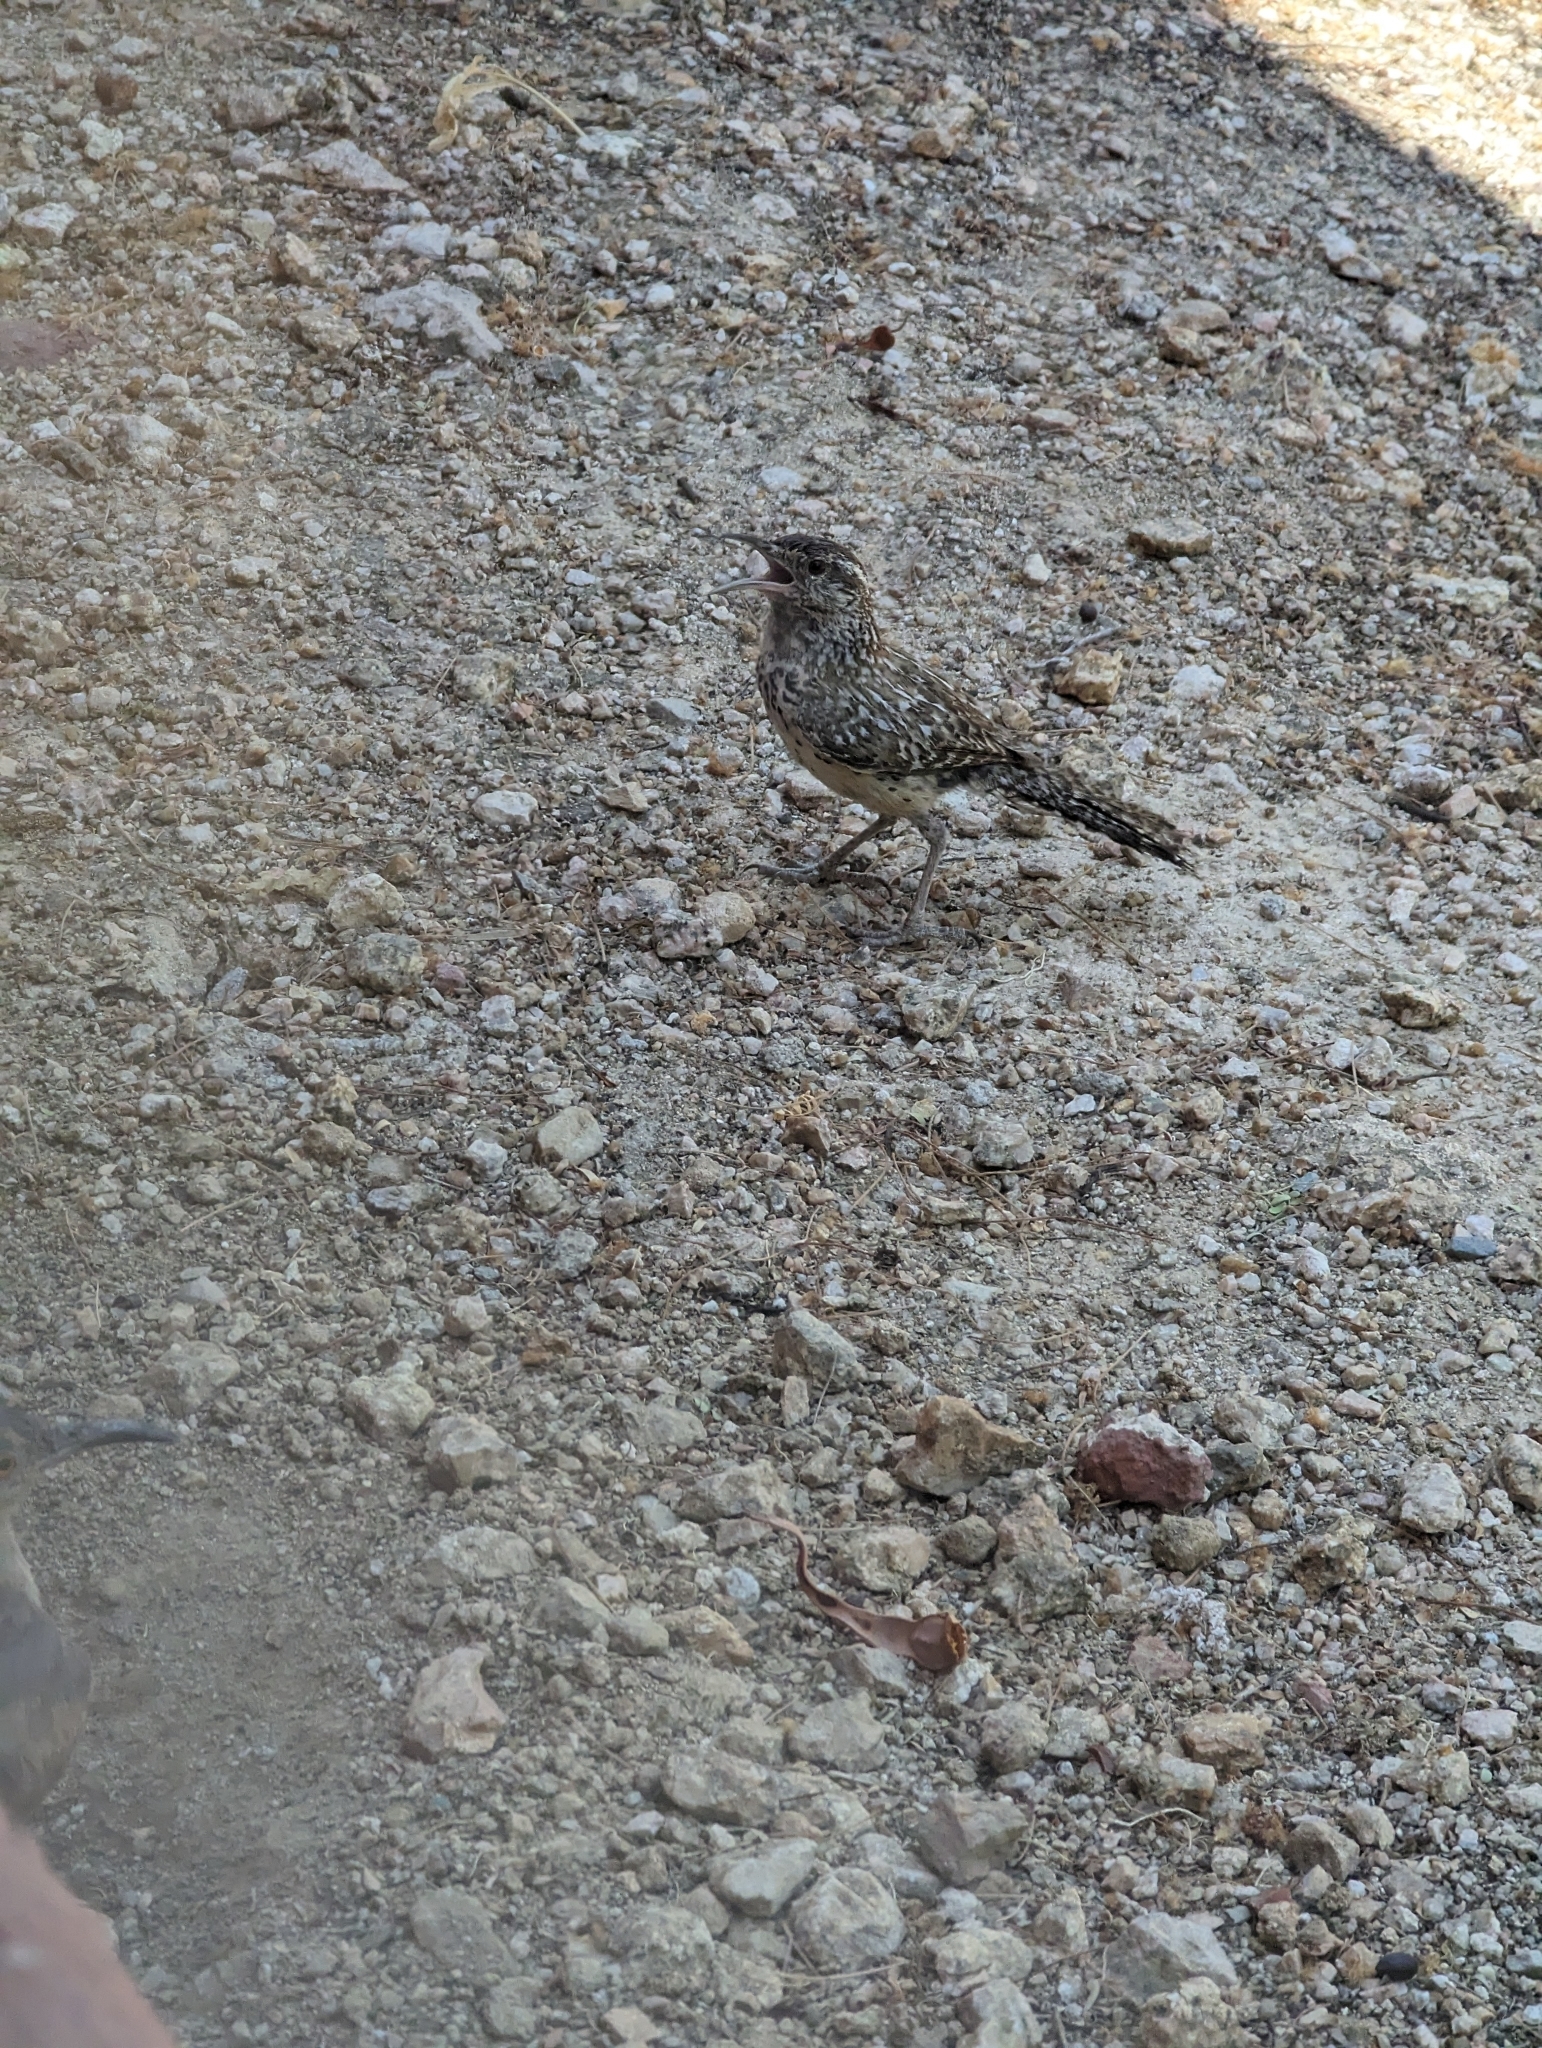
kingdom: Animalia
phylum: Chordata
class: Aves
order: Passeriformes
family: Troglodytidae
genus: Campylorhynchus
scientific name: Campylorhynchus brunneicapillus
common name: Cactus wren
